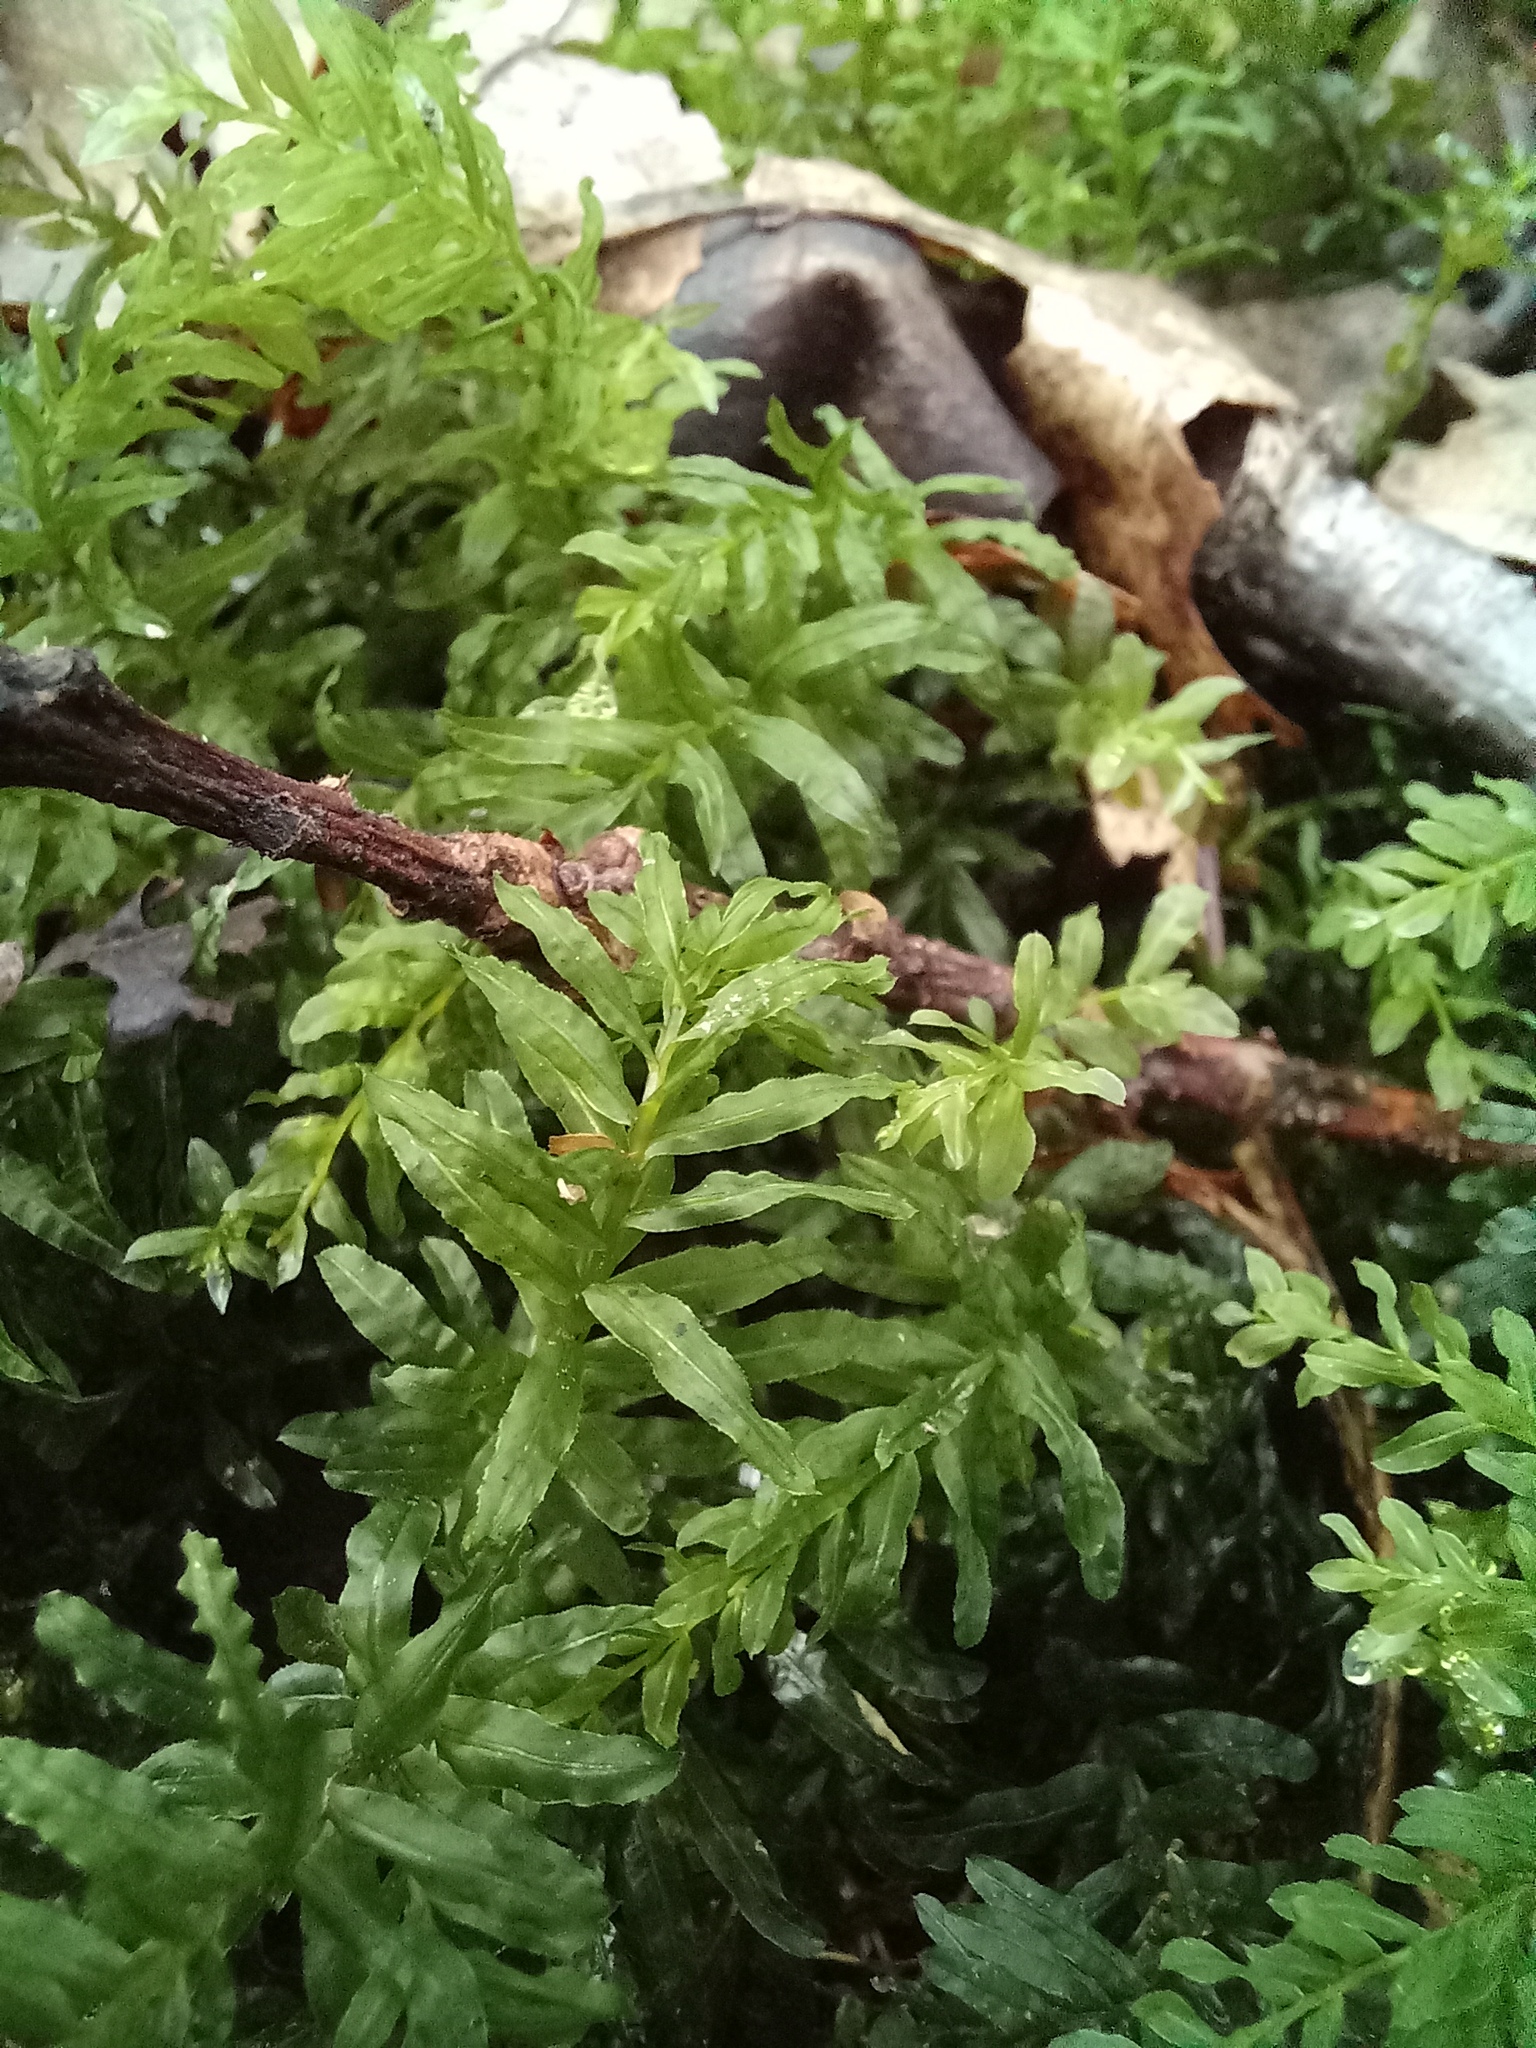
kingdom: Plantae
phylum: Bryophyta
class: Bryopsida
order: Bryales
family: Mniaceae
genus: Plagiomnium
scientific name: Plagiomnium undulatum
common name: Hart's-tongue thyme-moss
